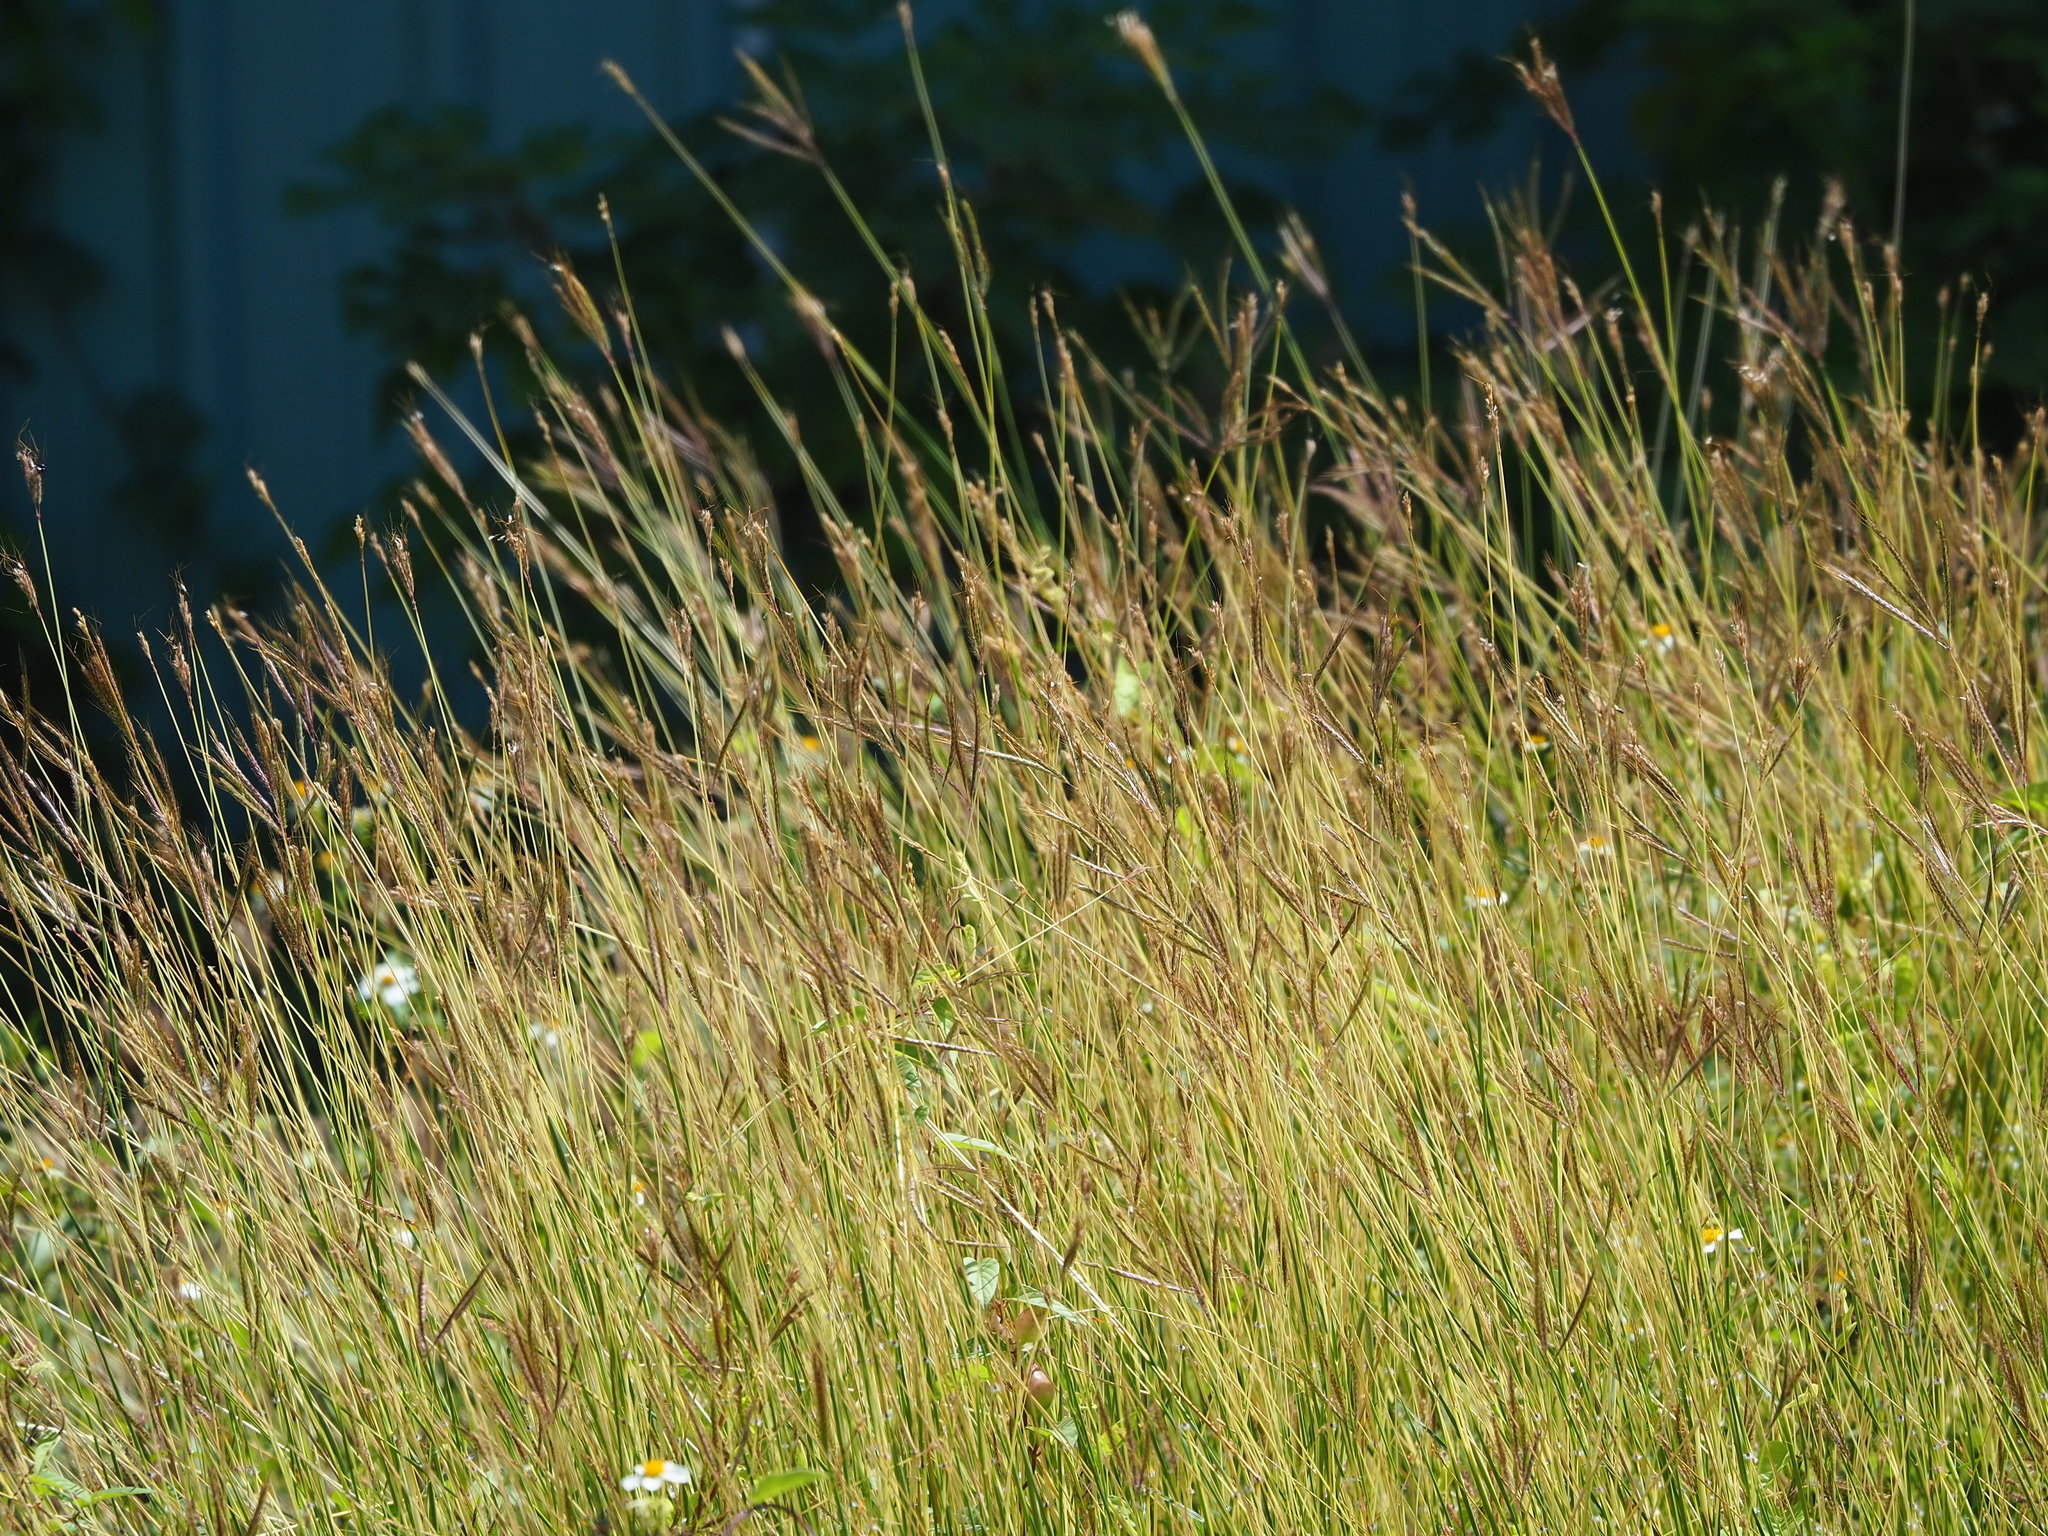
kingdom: Plantae
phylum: Tracheophyta
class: Liliopsida
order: Poales
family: Poaceae
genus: Dichanthium
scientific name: Dichanthium annulatum
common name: Kleberg's bluestem
